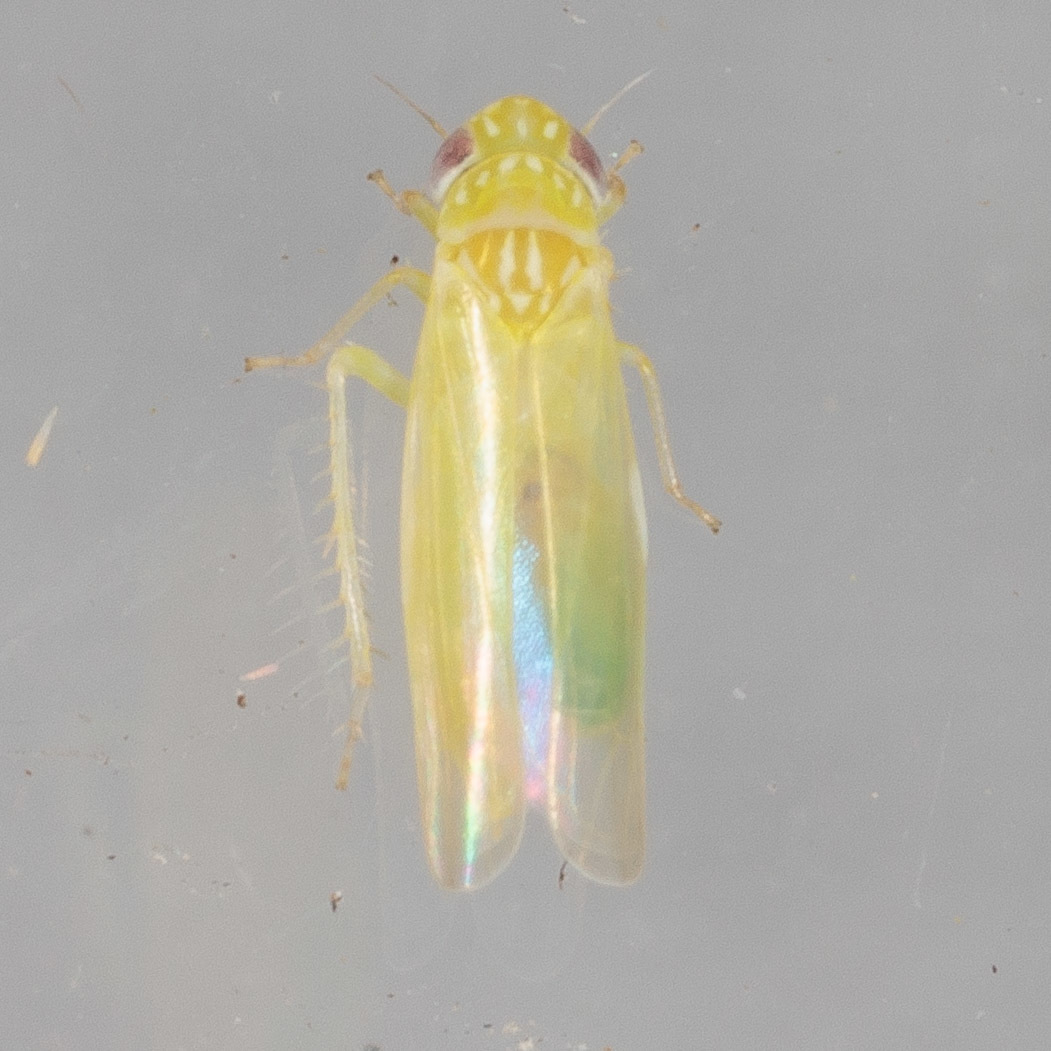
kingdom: Animalia
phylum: Arthropoda
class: Insecta
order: Hemiptera
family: Cicadellidae
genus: Empoasca
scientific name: Empoasca fabae
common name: Potato leafhopper
